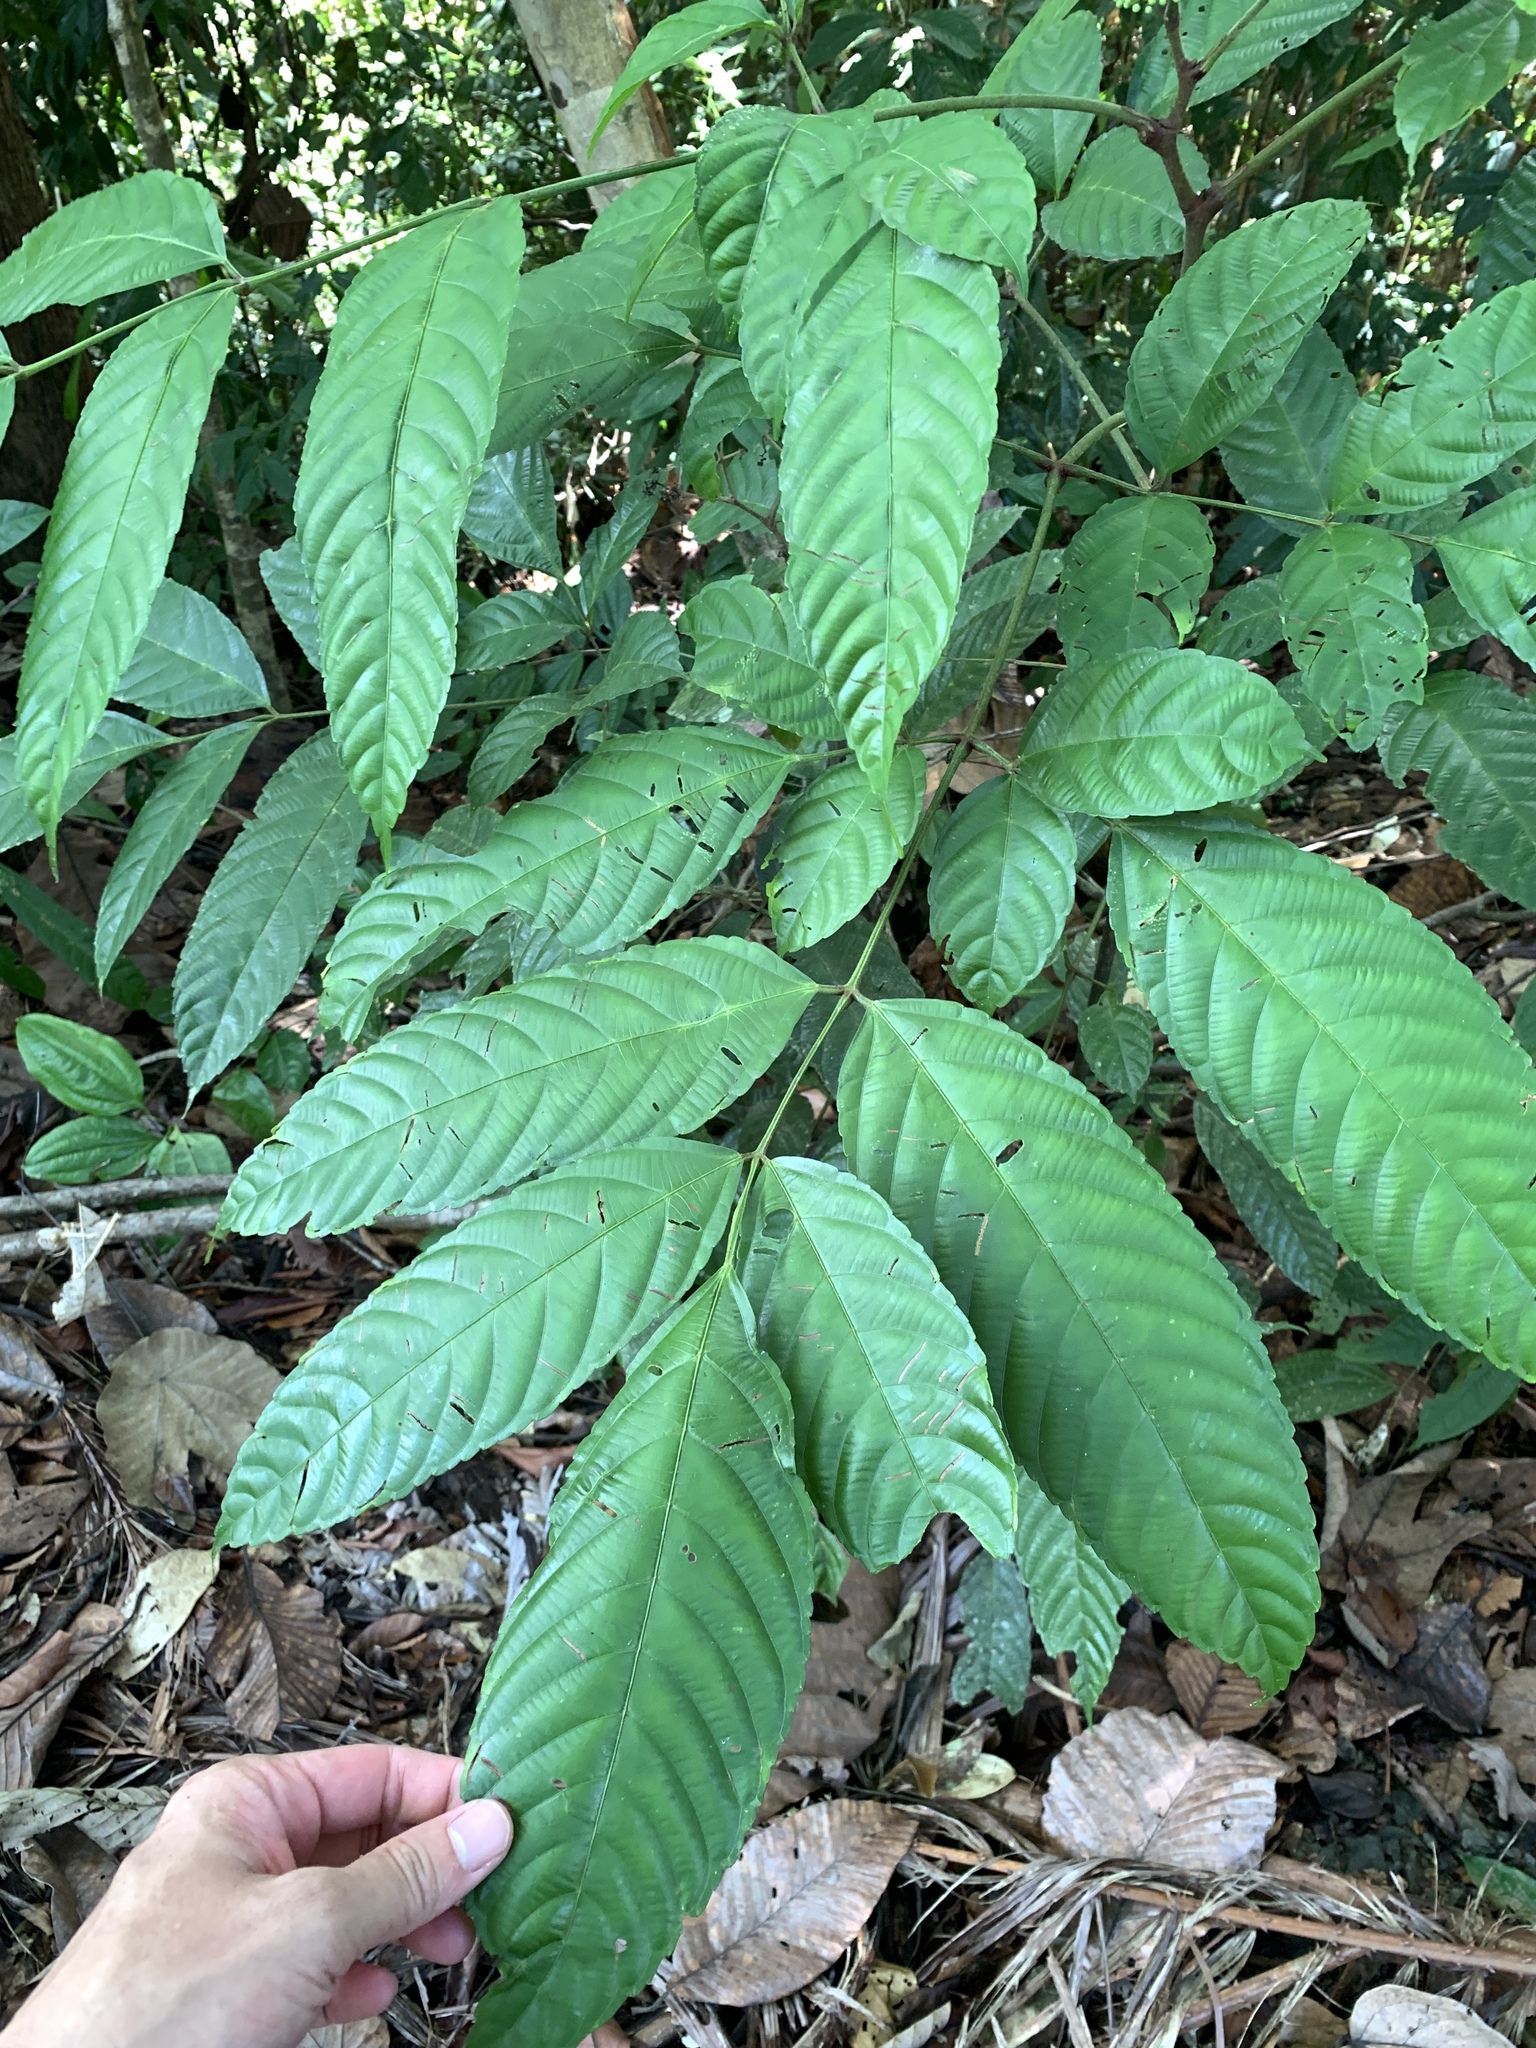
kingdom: Plantae
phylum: Tracheophyta
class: Magnoliopsida
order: Vitales
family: Vitaceae
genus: Leea
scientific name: Leea indica
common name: Bandicoot-berry
